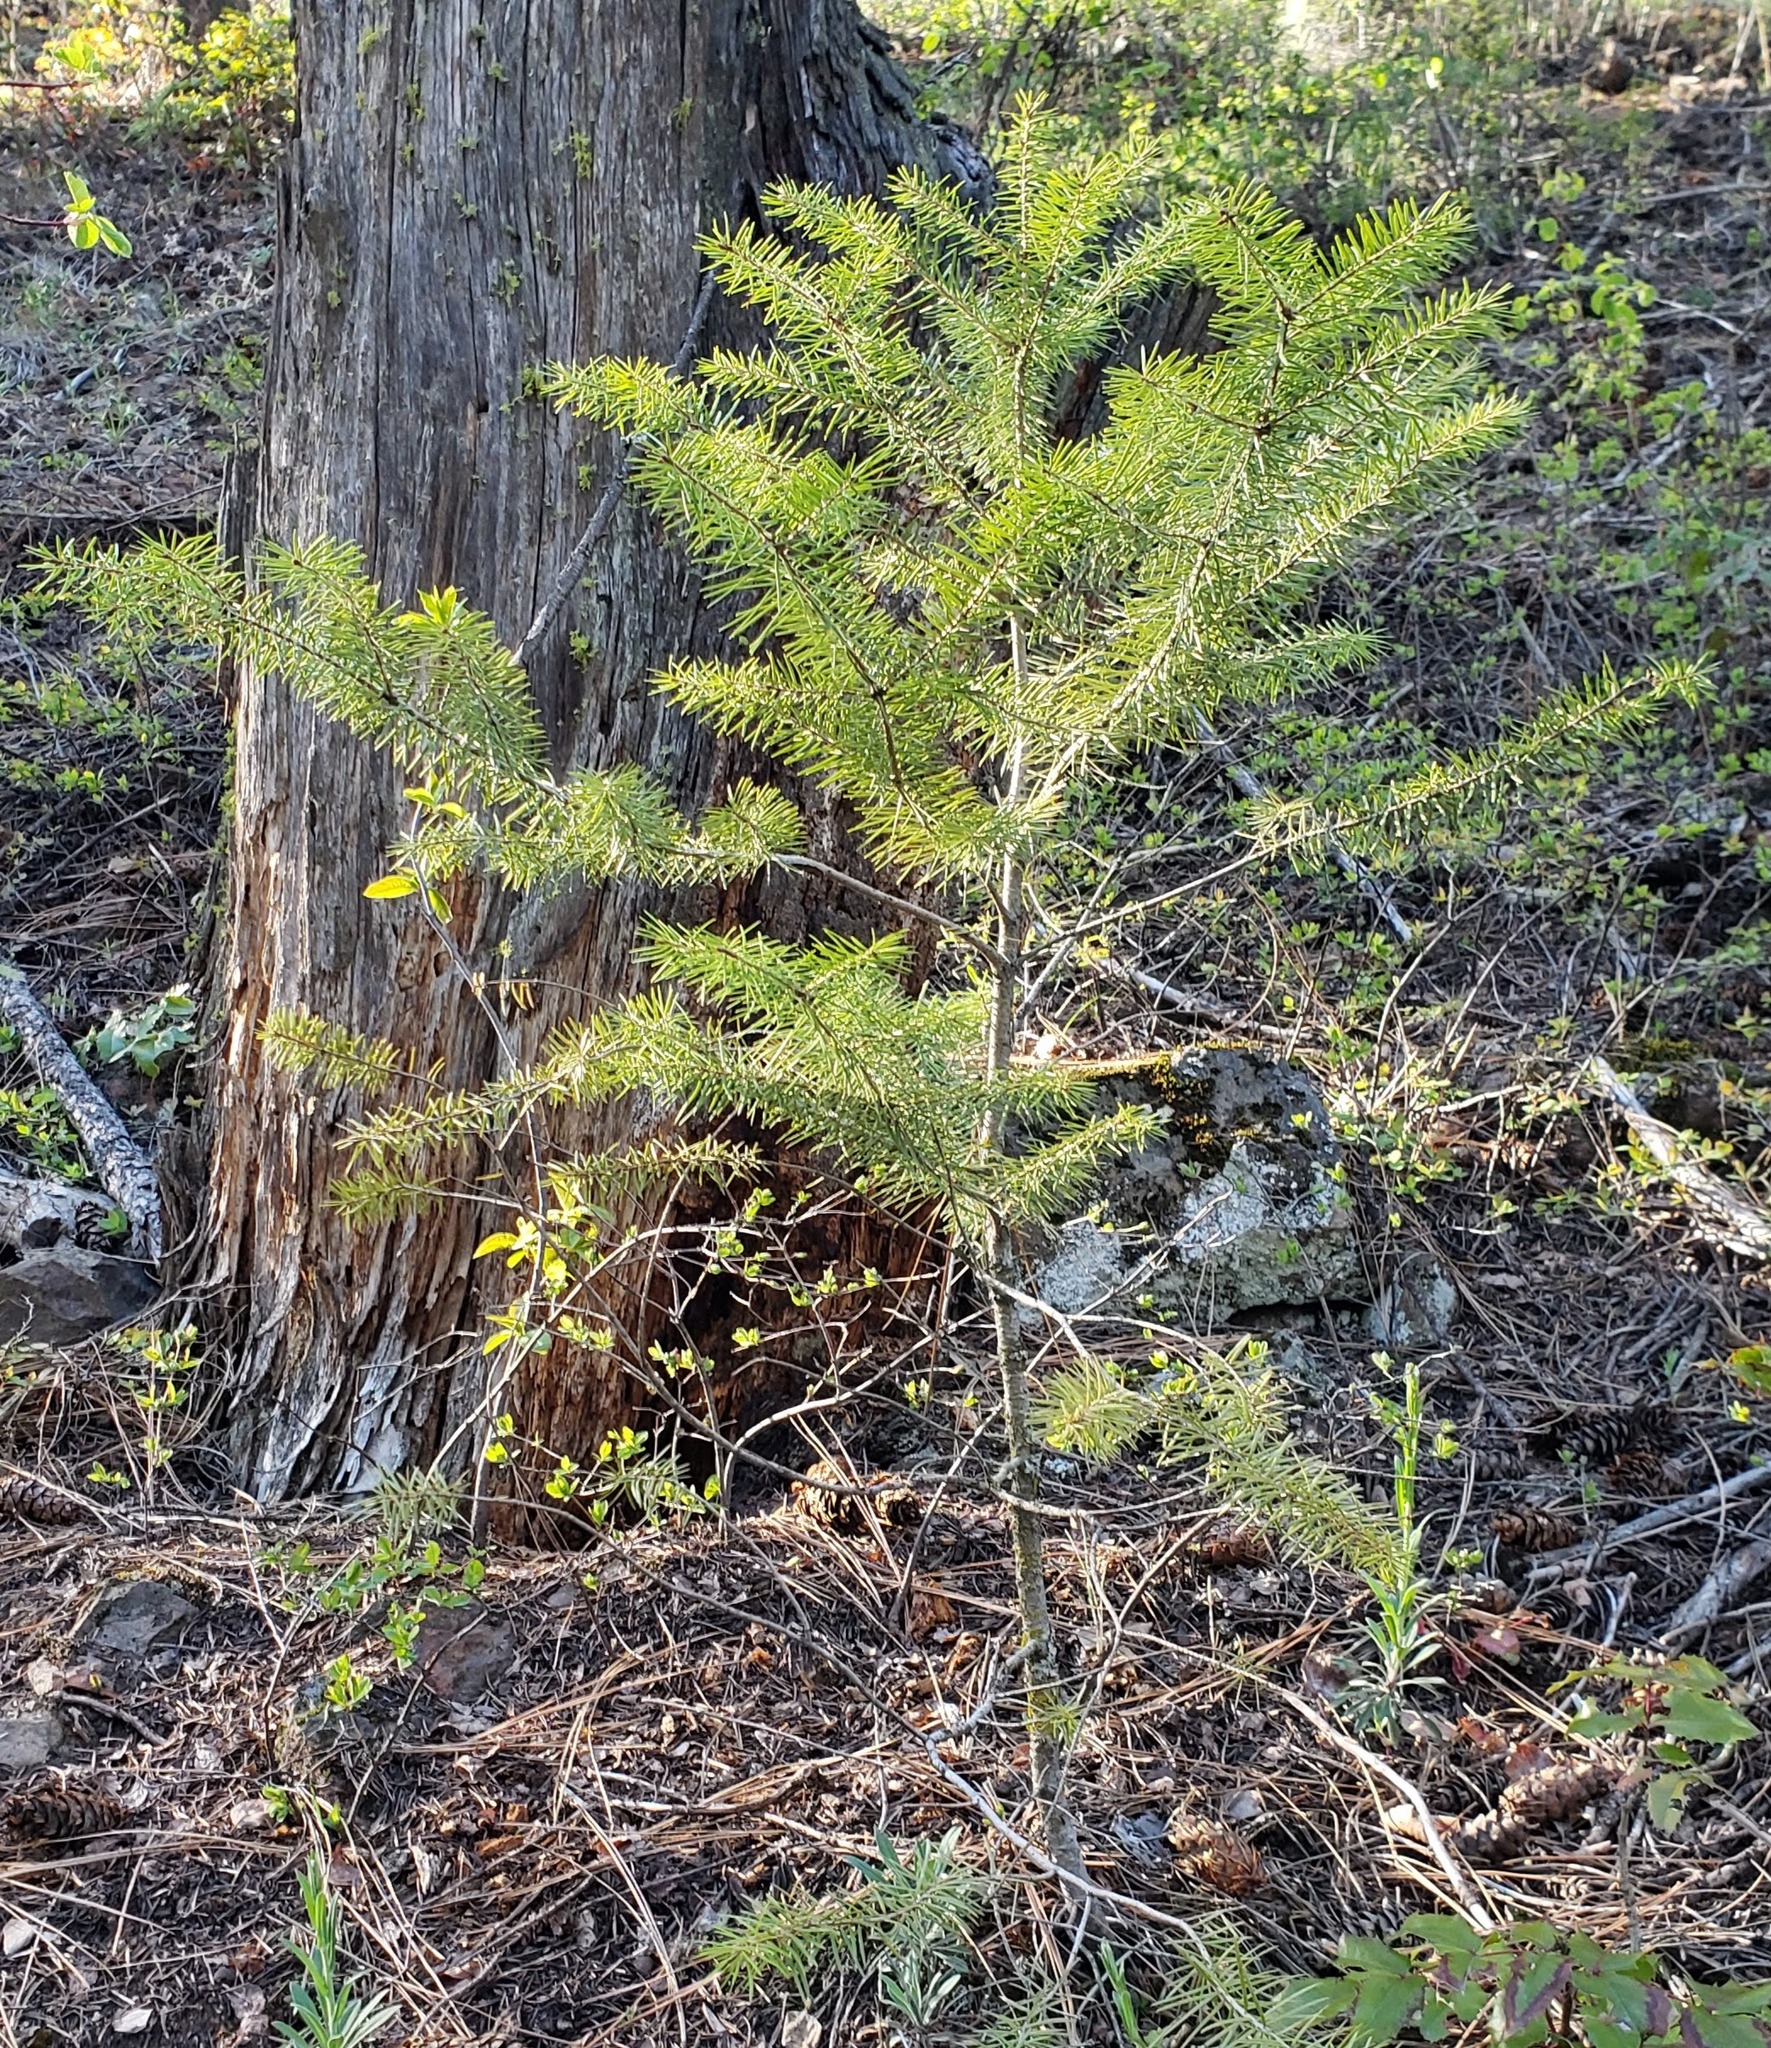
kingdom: Plantae
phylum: Tracheophyta
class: Pinopsida
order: Pinales
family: Pinaceae
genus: Pseudotsuga
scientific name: Pseudotsuga menziesii
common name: Douglas fir
